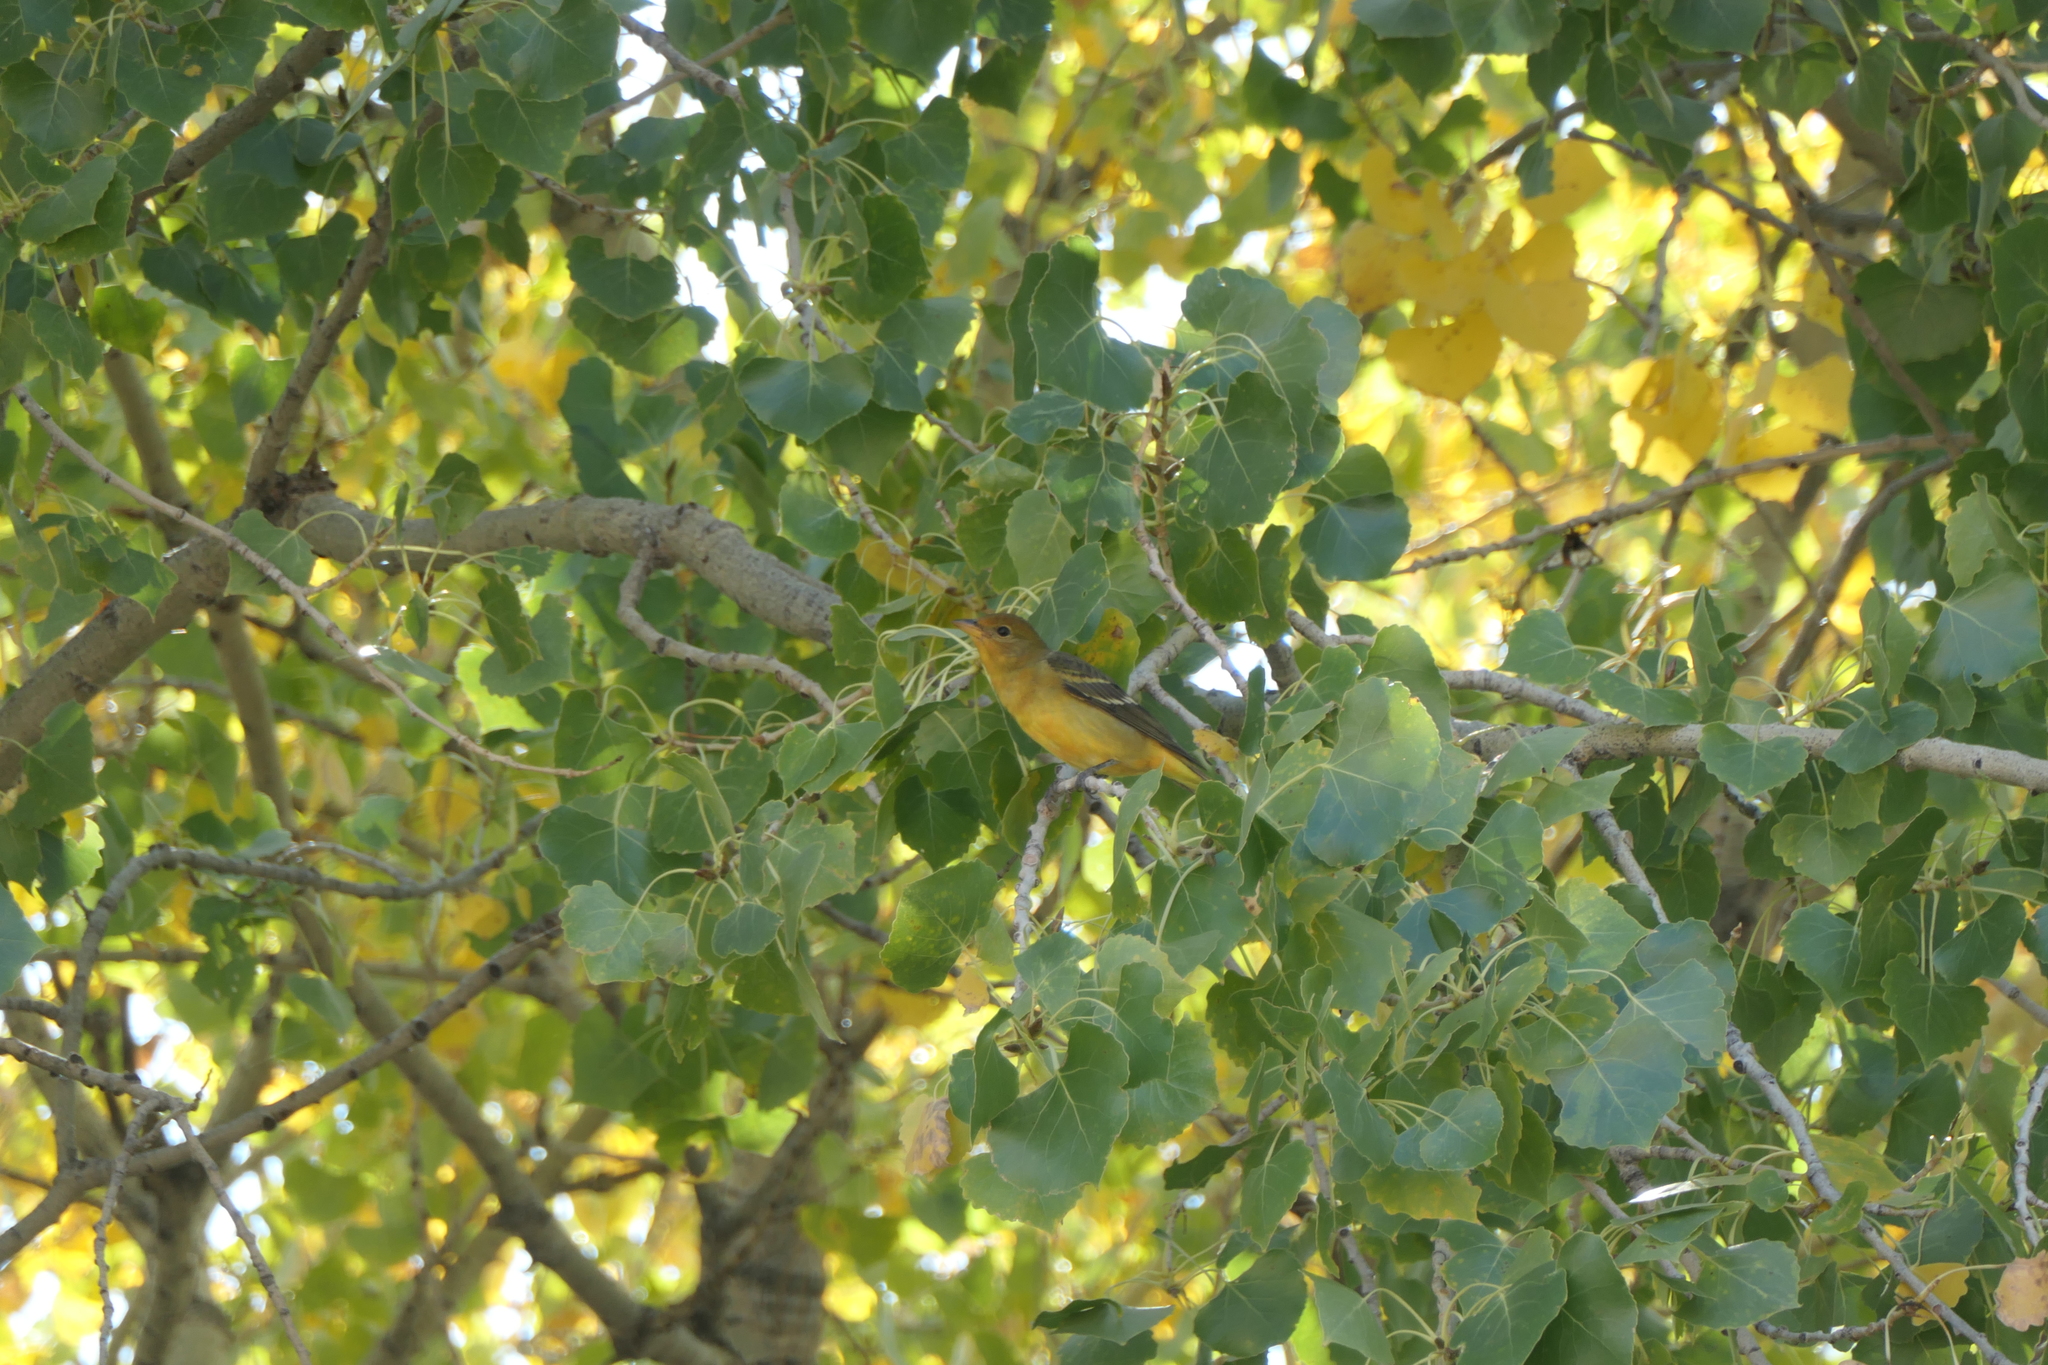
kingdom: Animalia
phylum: Chordata
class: Aves
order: Passeriformes
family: Cardinalidae
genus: Piranga
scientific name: Piranga ludoviciana
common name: Western tanager
